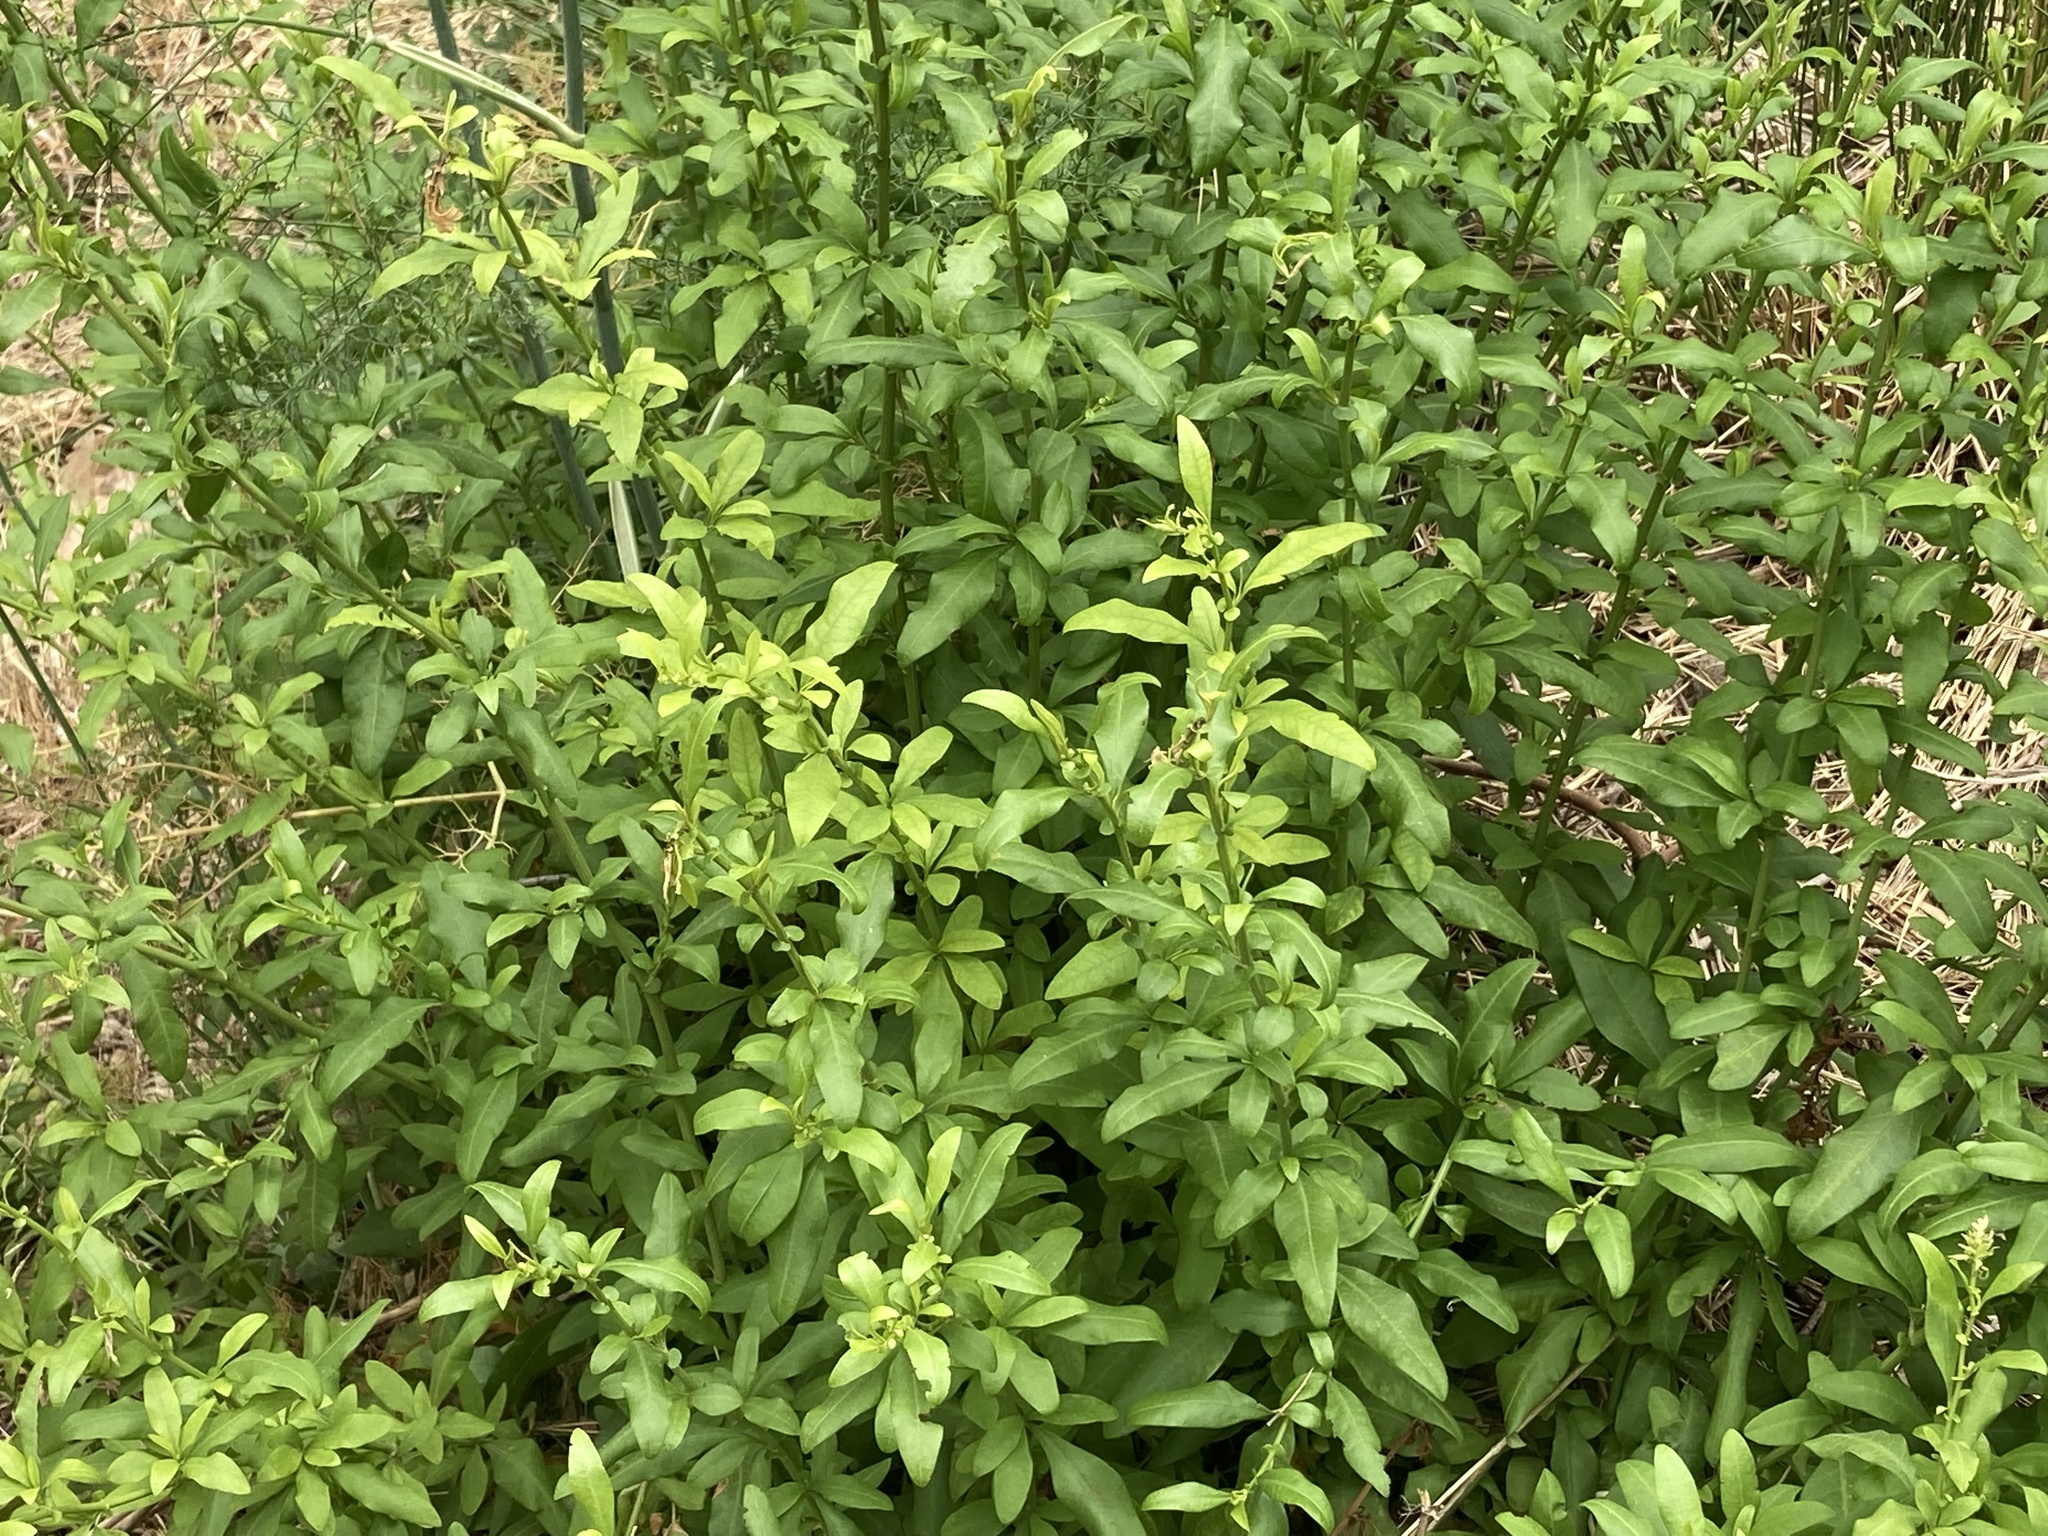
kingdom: Plantae
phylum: Tracheophyta
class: Magnoliopsida
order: Caryophyllales
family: Plumbaginaceae
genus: Plumbago
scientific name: Plumbago auriculata
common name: Cape leadwort
